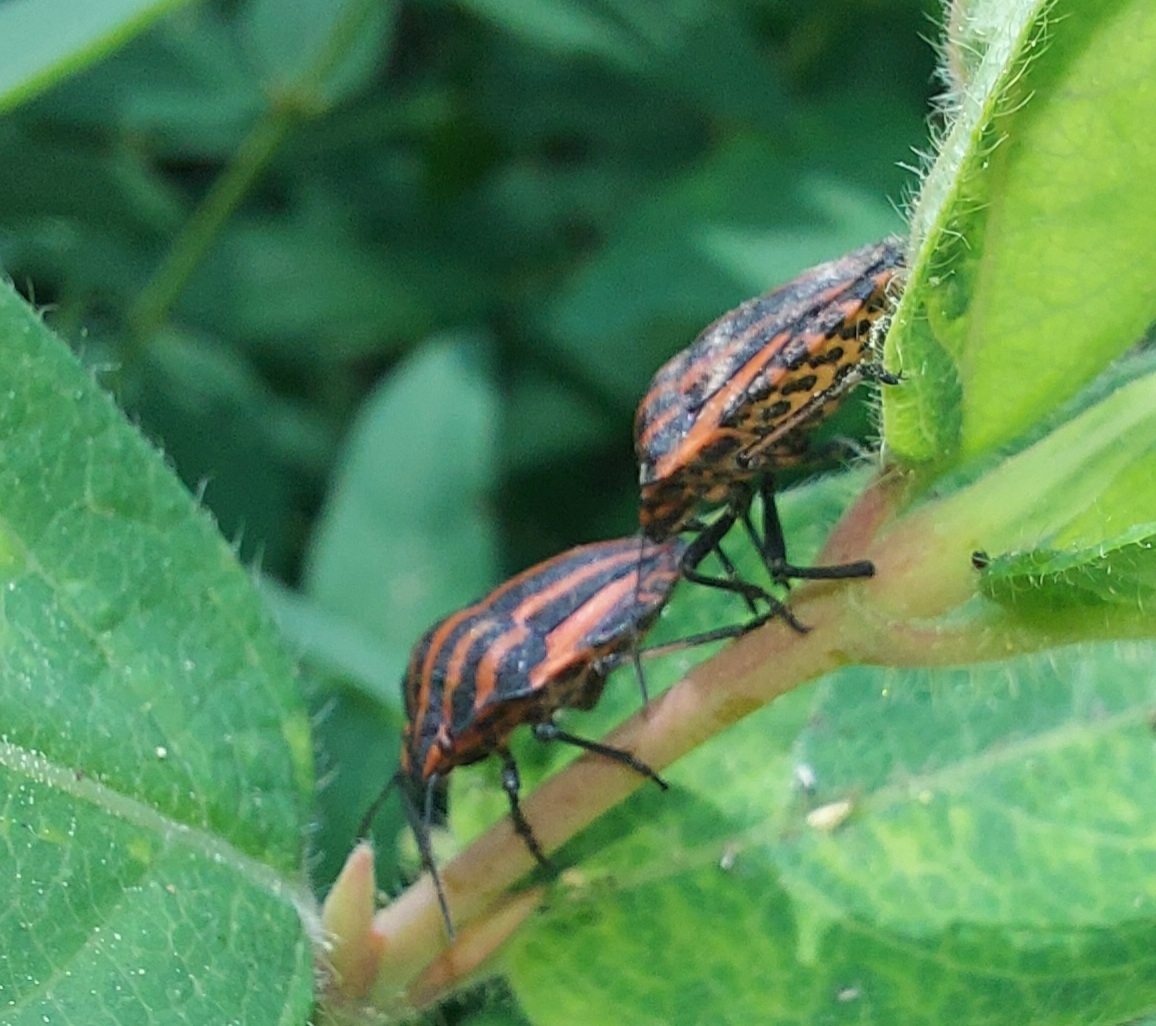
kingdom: Animalia
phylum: Arthropoda
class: Insecta
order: Hemiptera
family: Pentatomidae
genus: Graphosoma
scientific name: Graphosoma italicum
